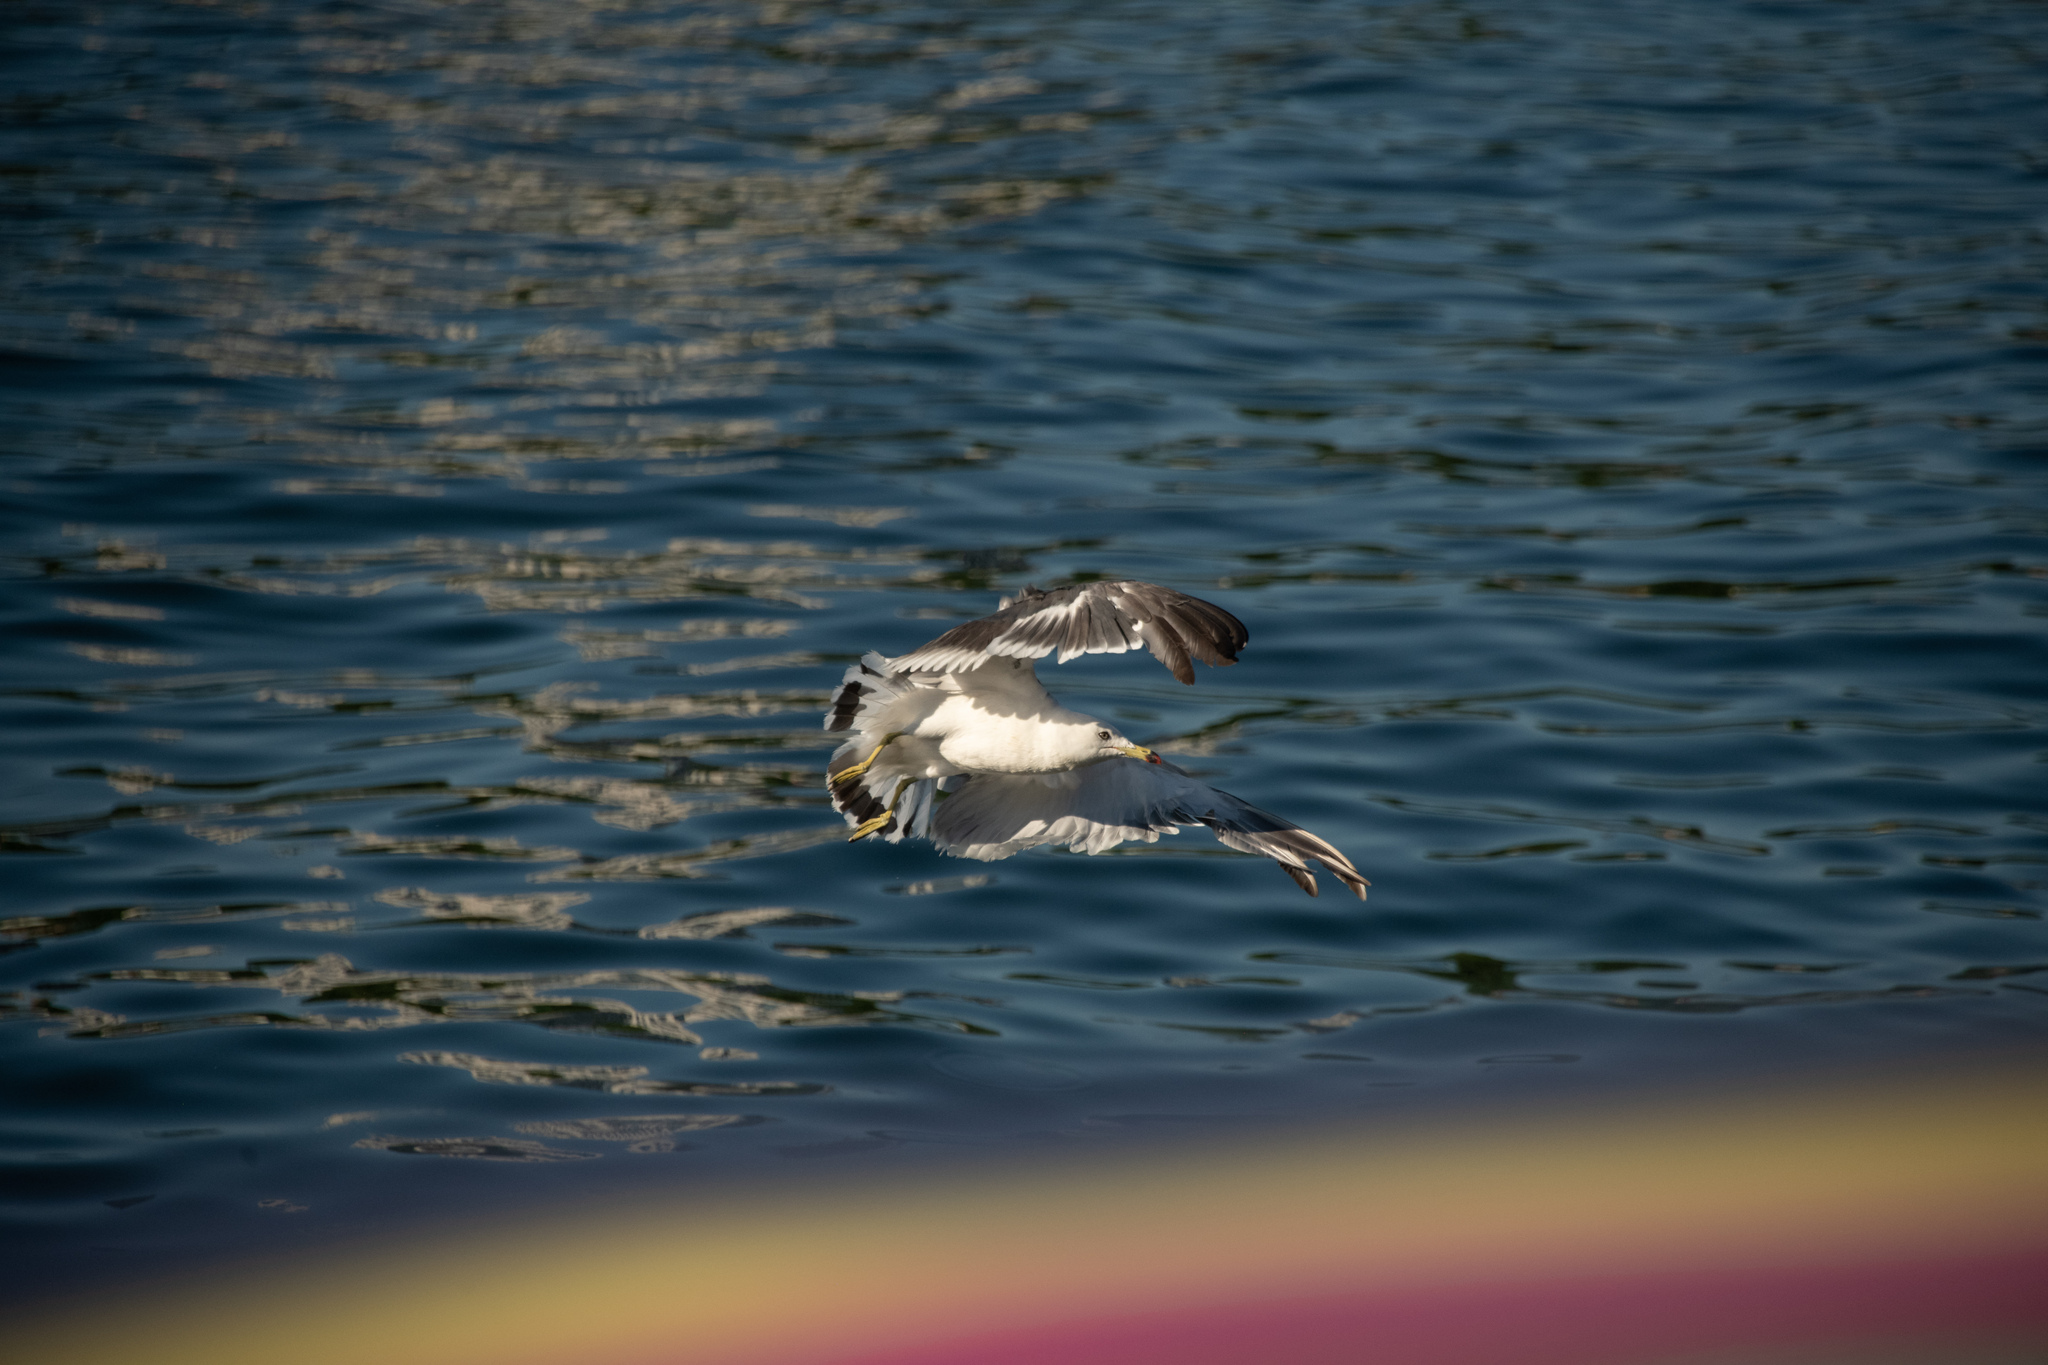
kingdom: Animalia
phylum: Chordata
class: Aves
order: Charadriiformes
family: Laridae
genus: Larus
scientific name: Larus crassirostris
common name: Black-tailed gull
